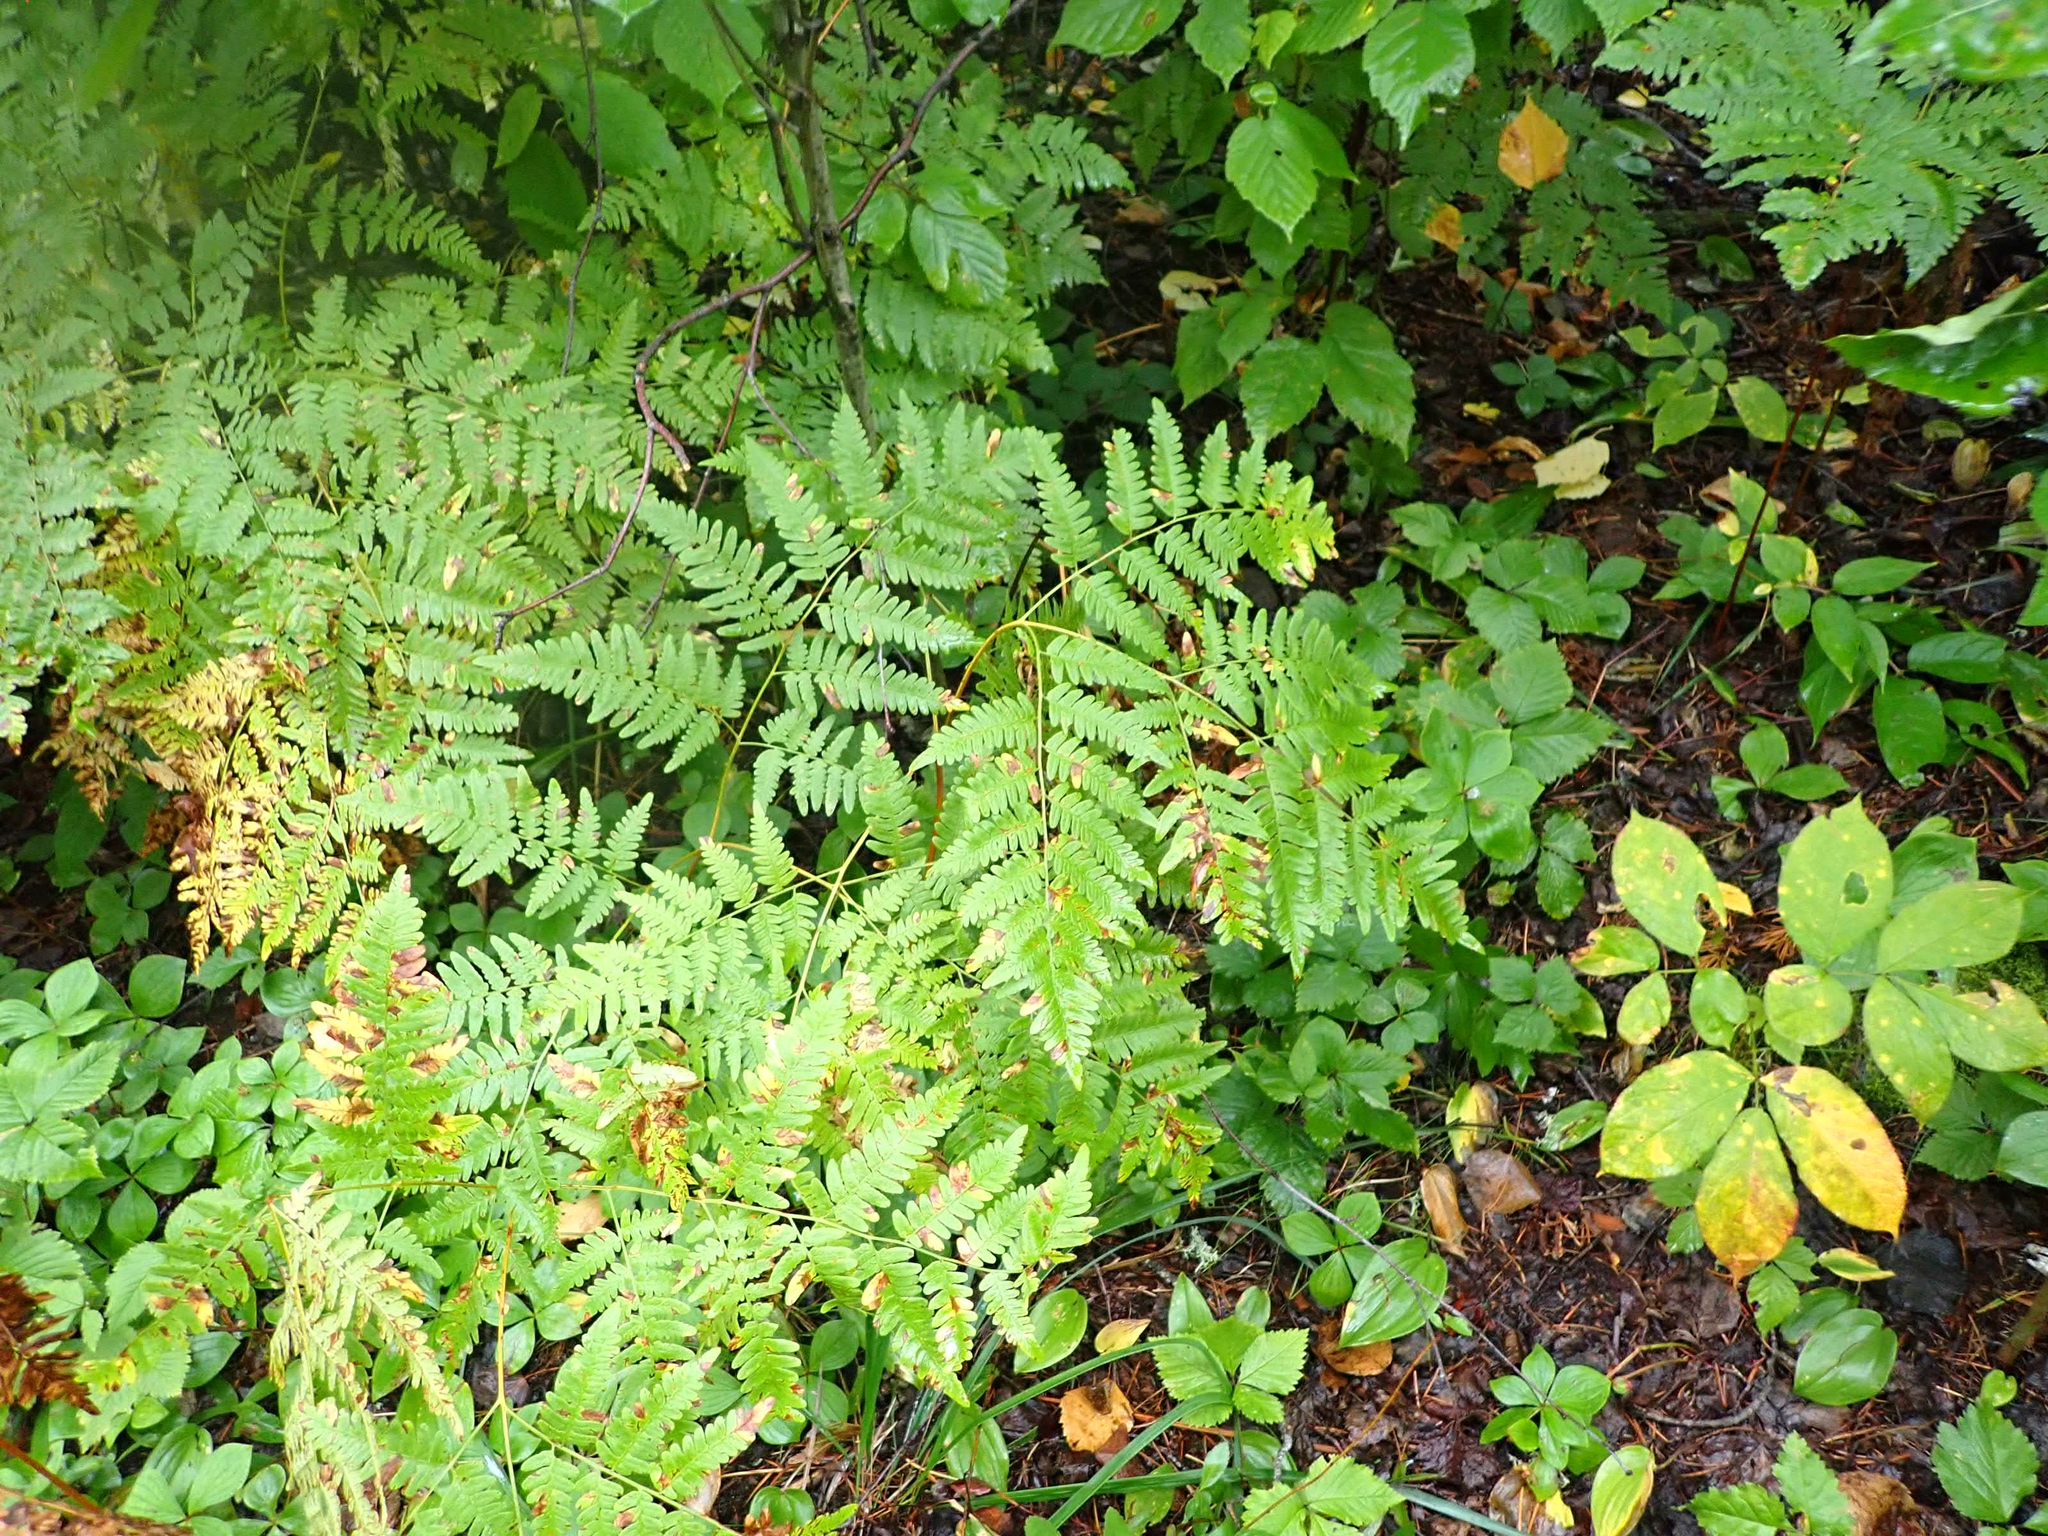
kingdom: Plantae
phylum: Tracheophyta
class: Polypodiopsida
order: Polypodiales
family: Dennstaedtiaceae
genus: Pteridium
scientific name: Pteridium aquilinum
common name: Bracken
